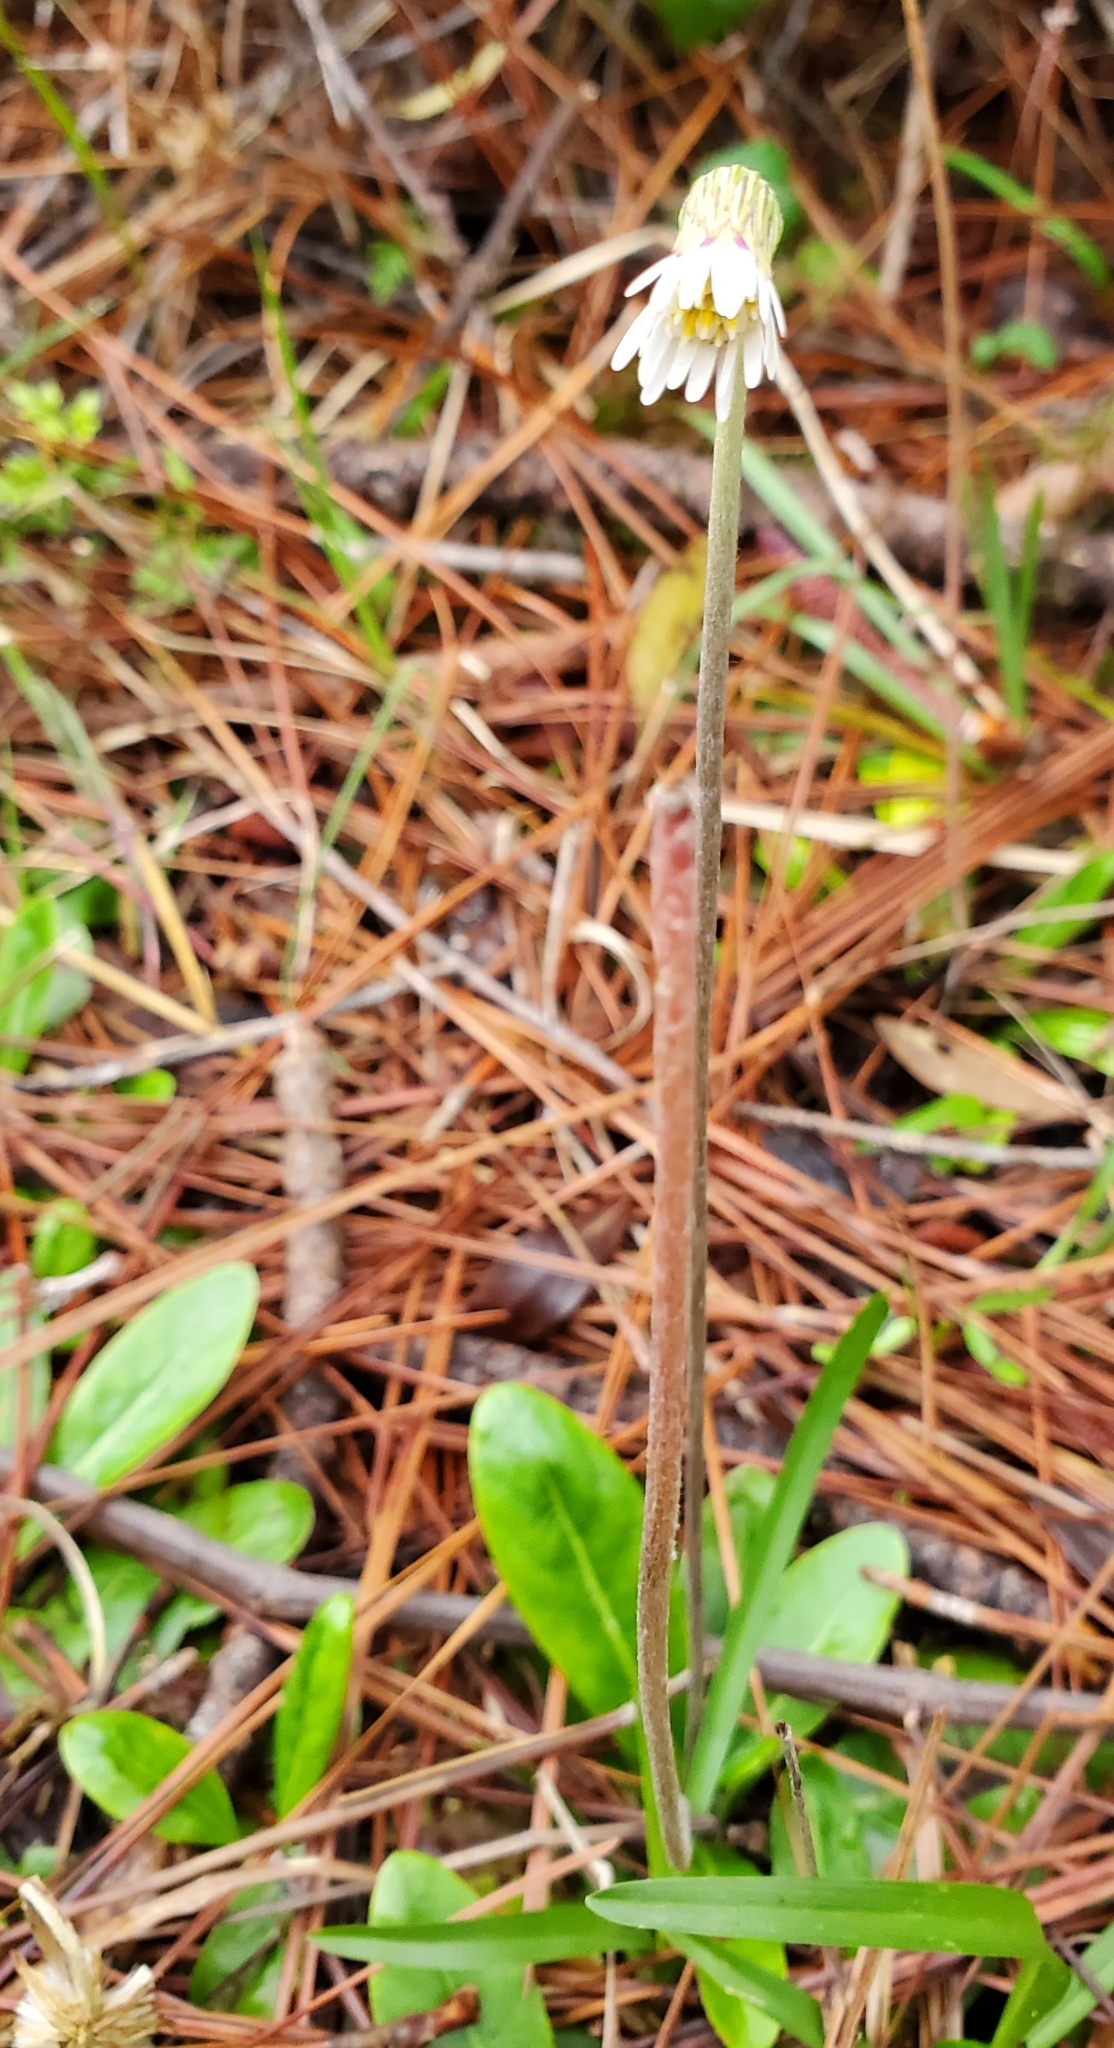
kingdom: Plantae
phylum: Tracheophyta
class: Magnoliopsida
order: Asterales
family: Asteraceae
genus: Chaptalia
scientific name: Chaptalia tomentosa
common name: Woolly sunbonnet
